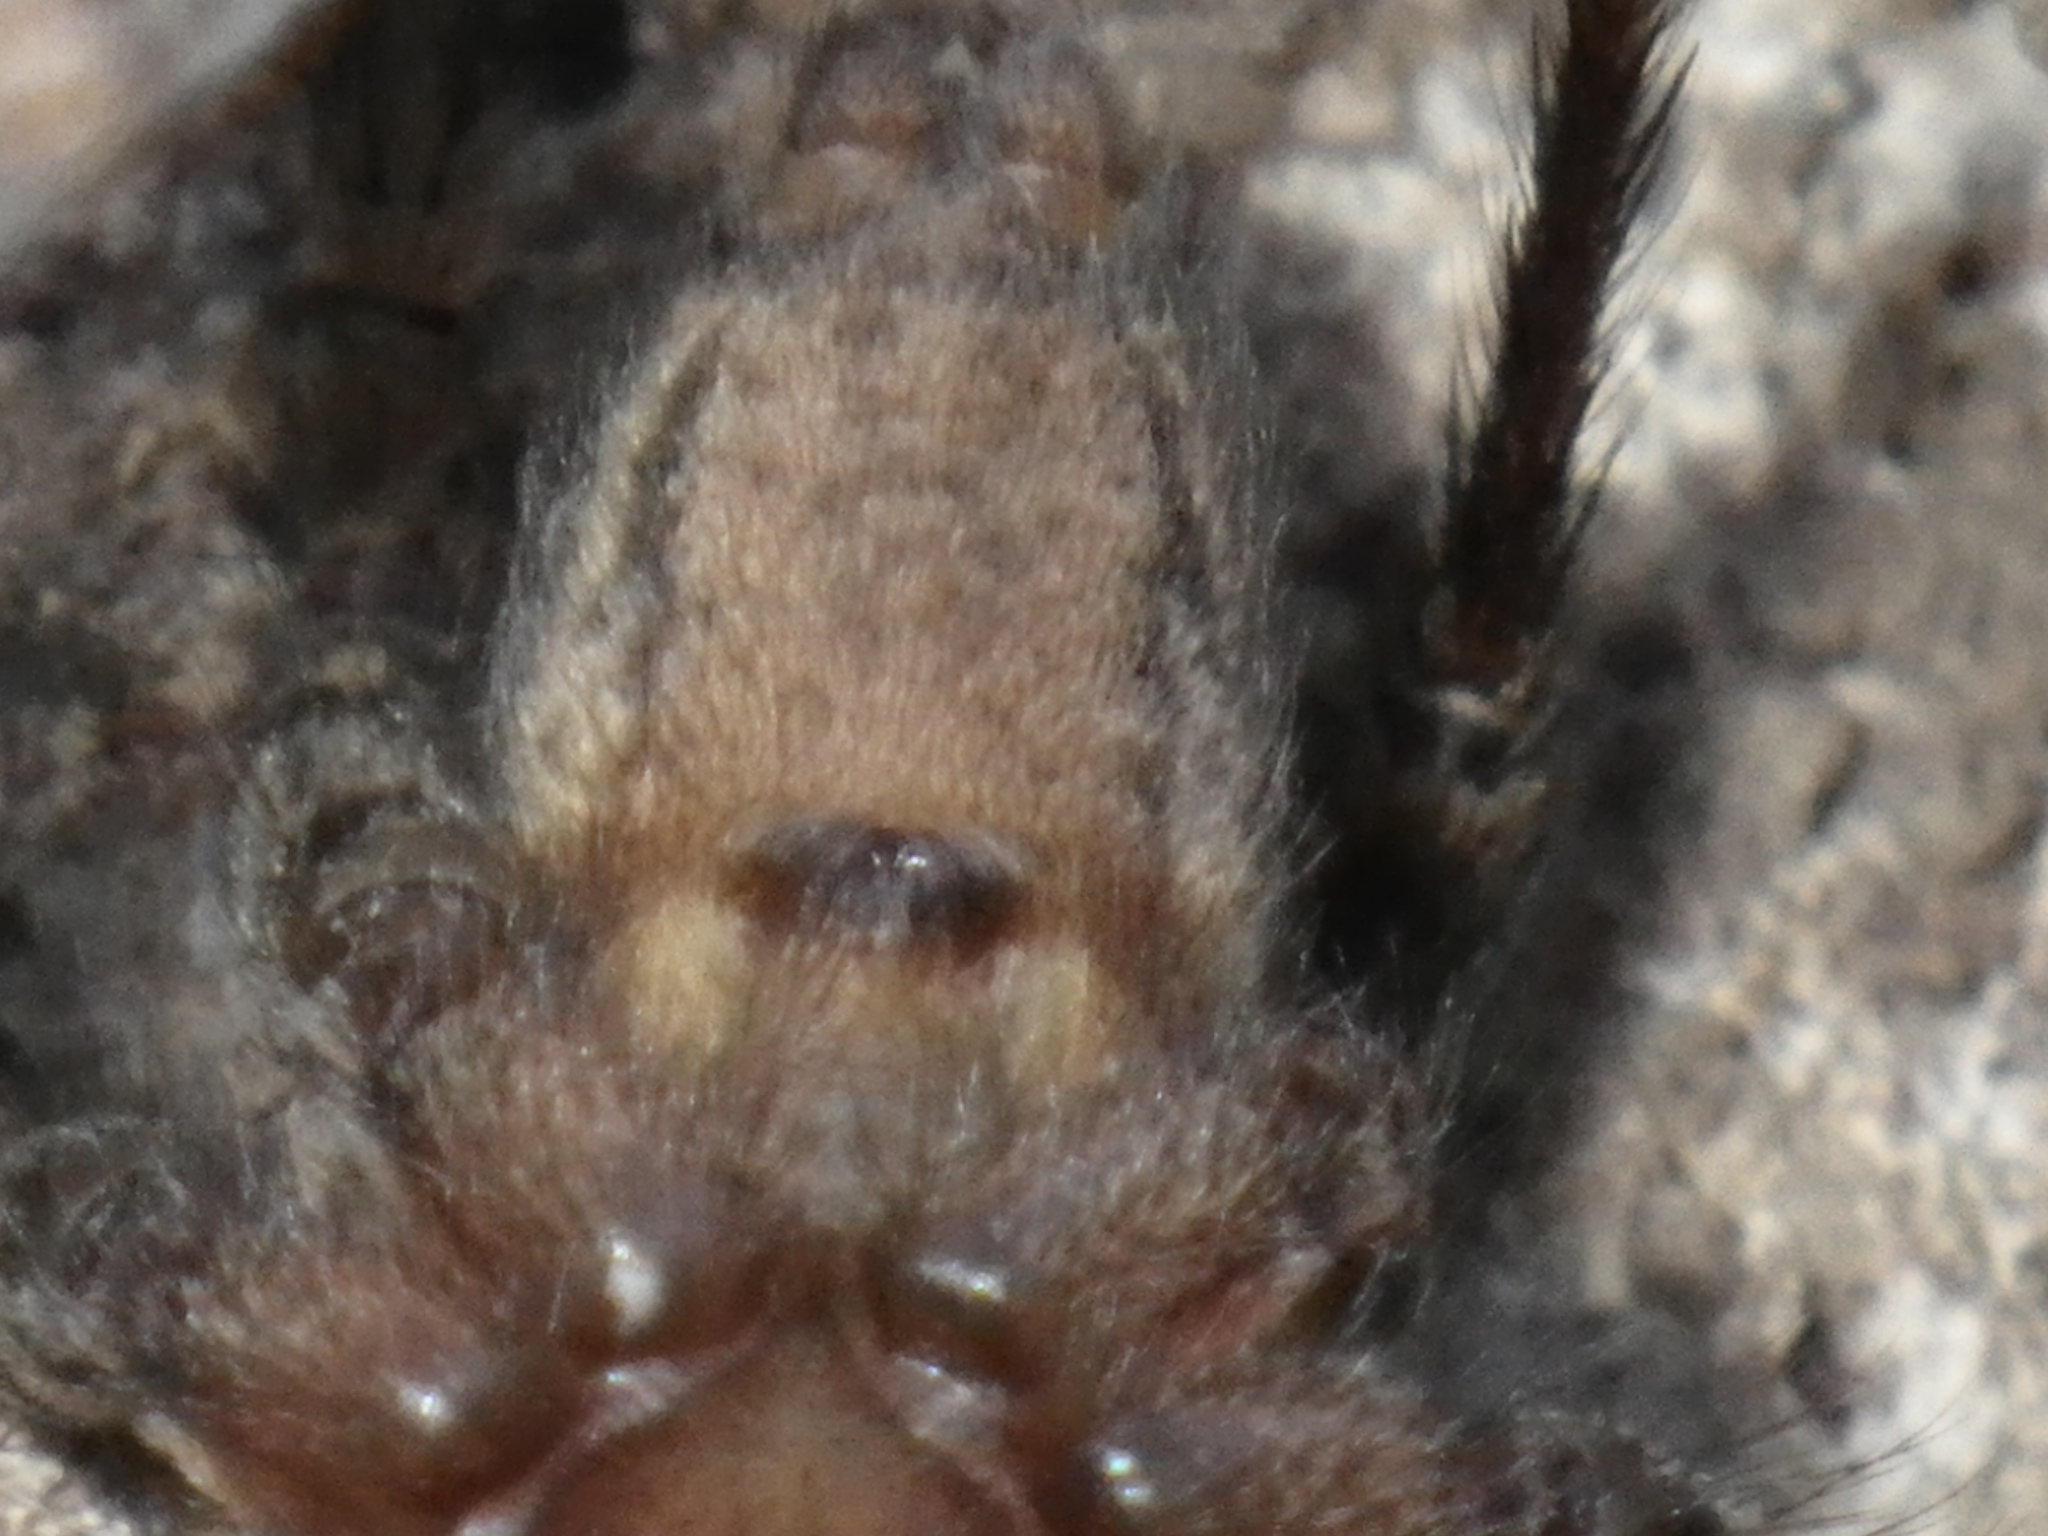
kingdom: Animalia
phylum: Arthropoda
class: Arachnida
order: Araneae
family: Agelenidae
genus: Hololena
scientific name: Hololena
